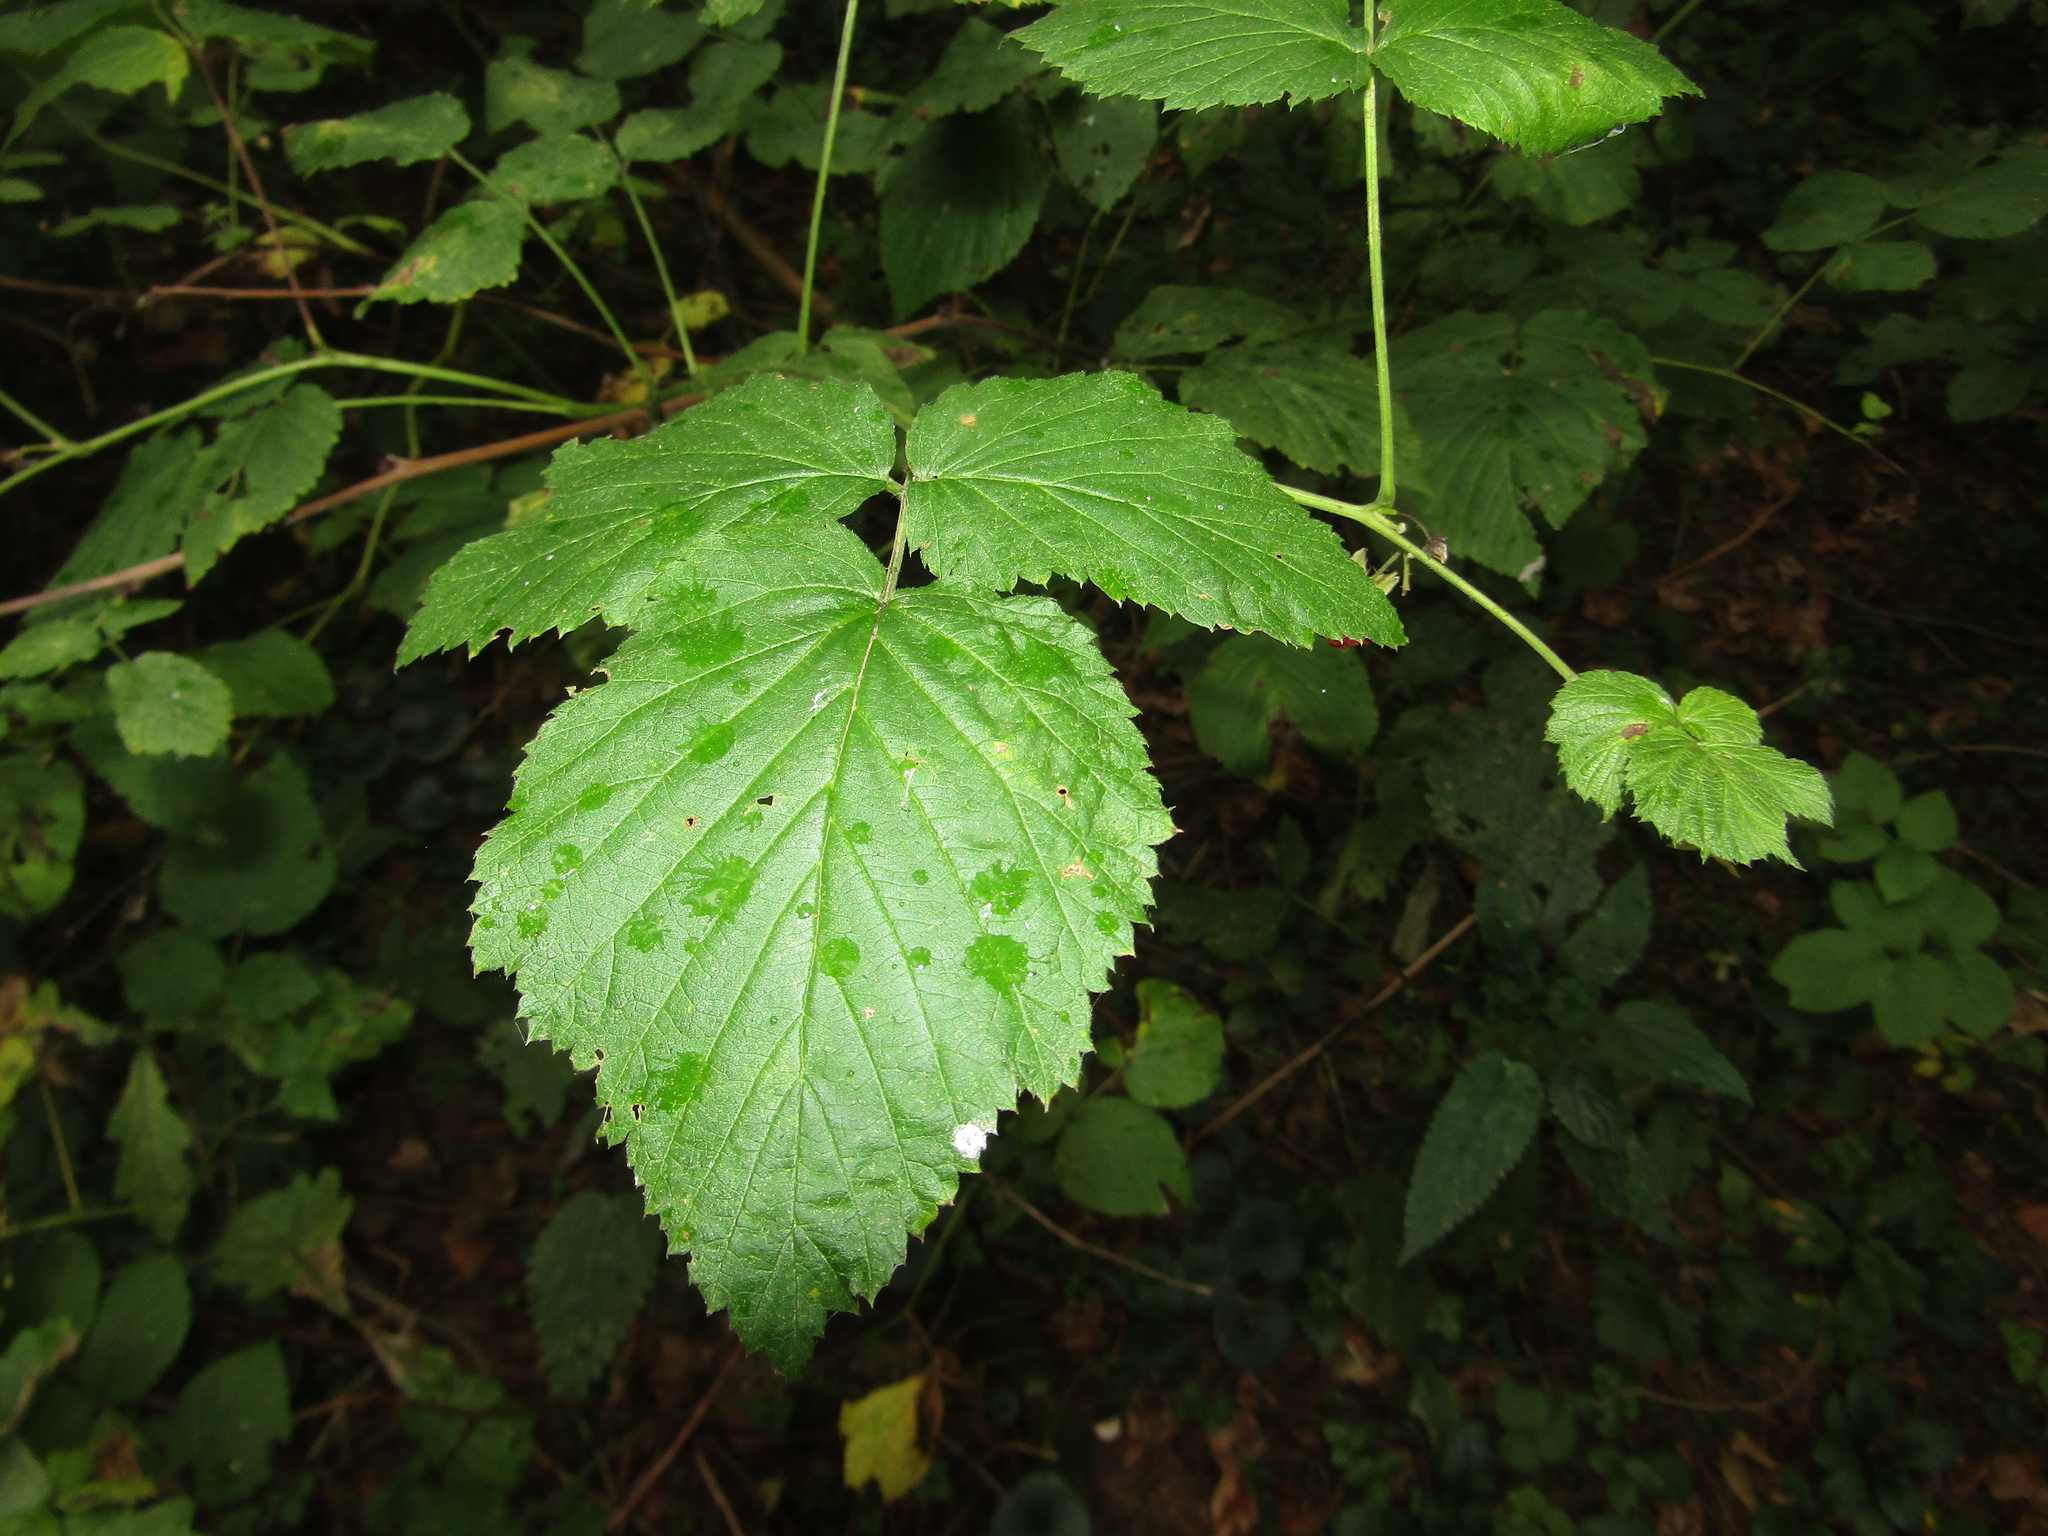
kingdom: Plantae
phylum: Tracheophyta
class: Magnoliopsida
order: Rosales
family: Rosaceae
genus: Rubus
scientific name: Rubus idaeus
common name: Raspberry
